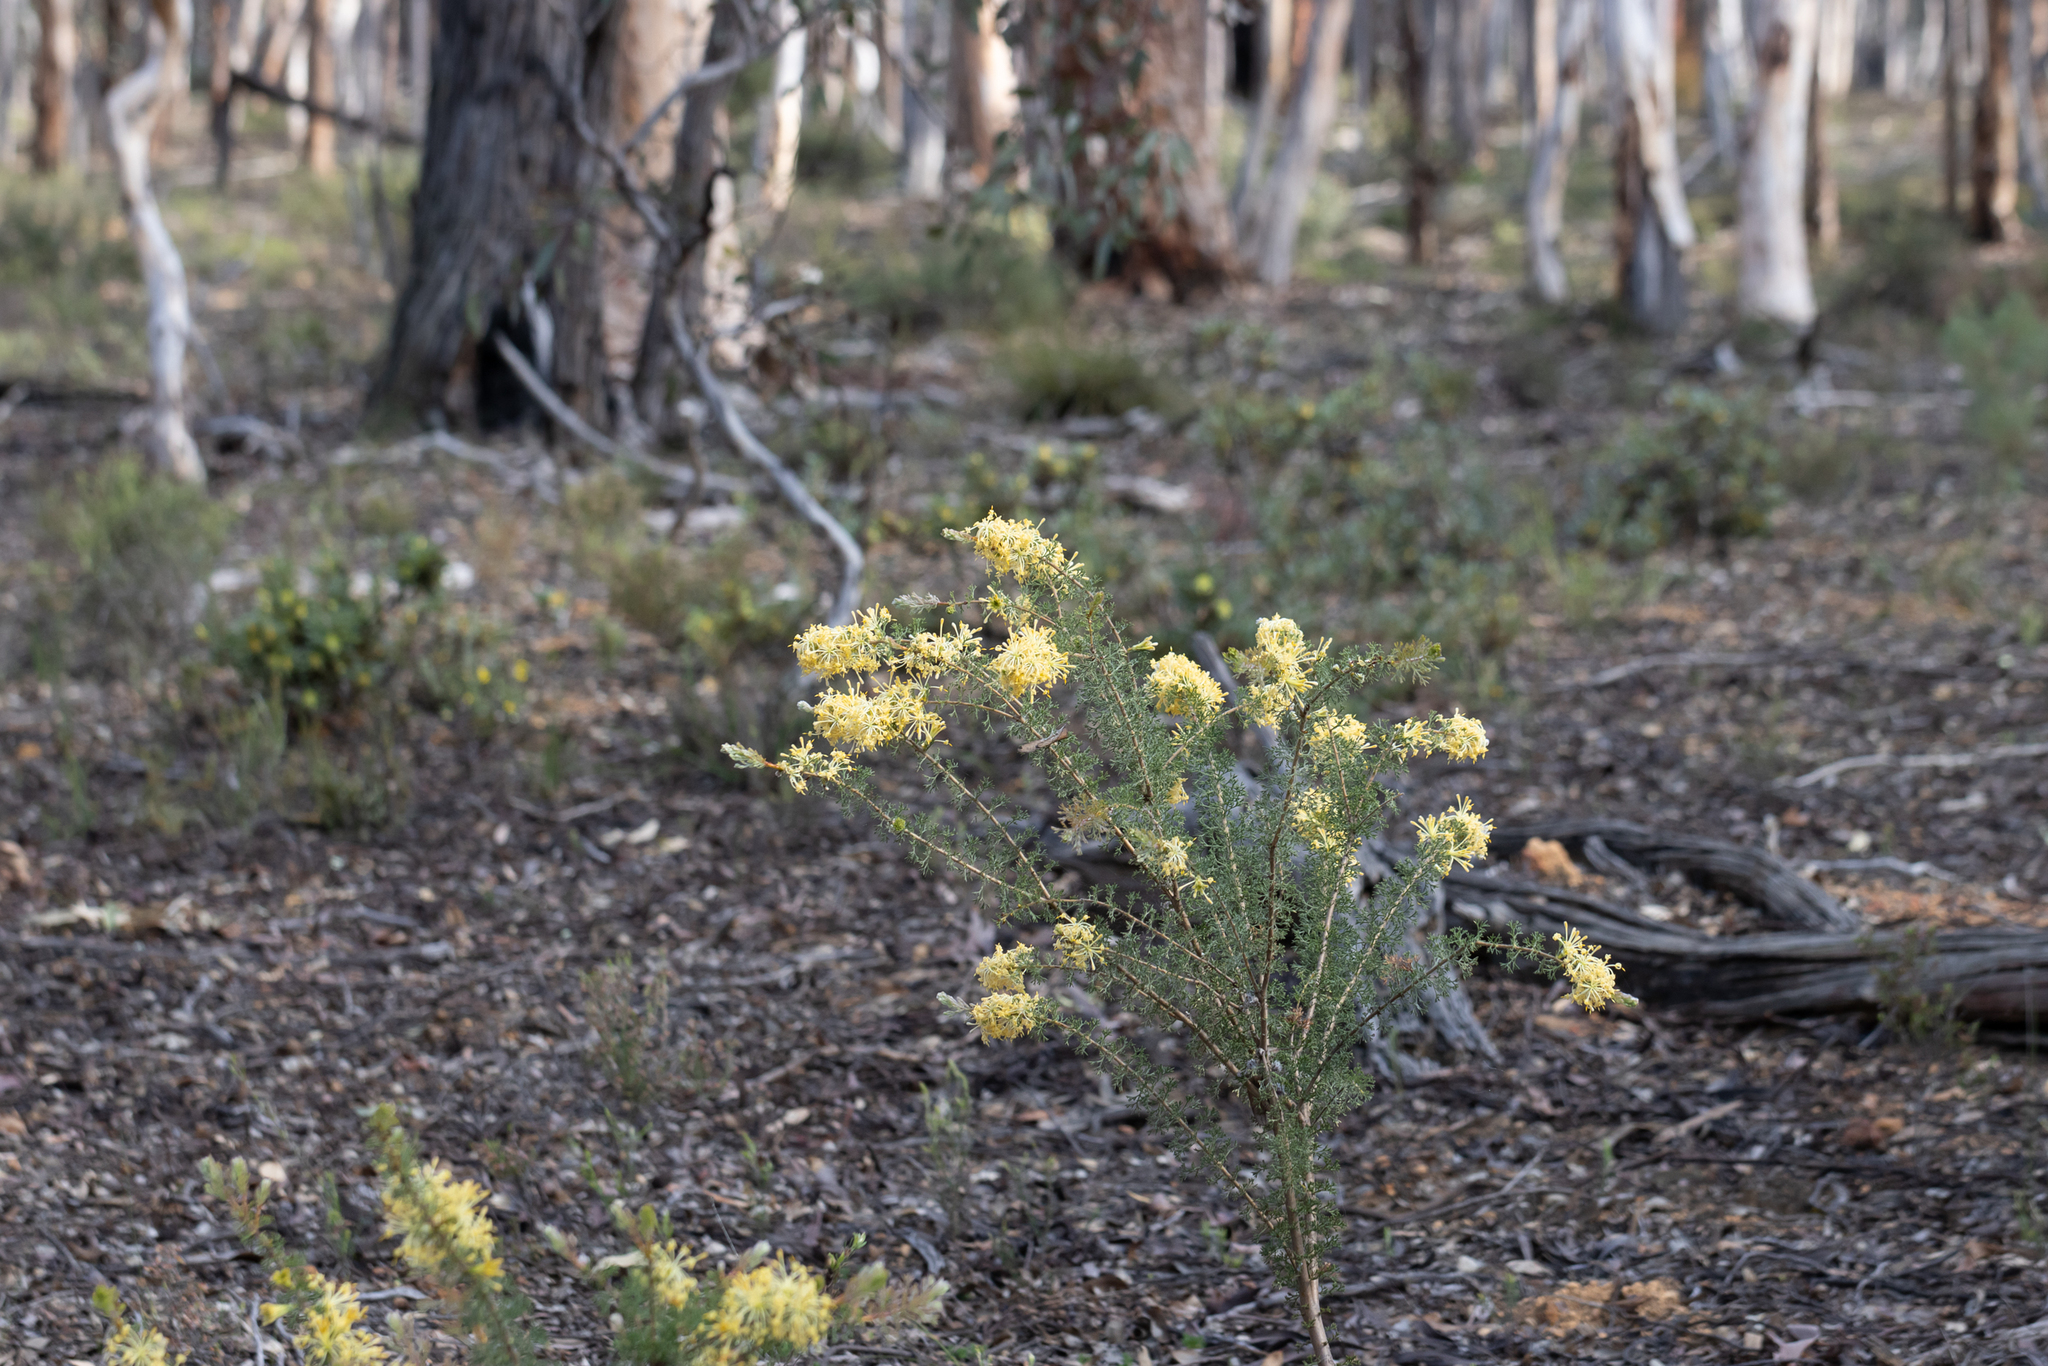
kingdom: Plantae
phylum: Tracheophyta
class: Magnoliopsida
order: Proteales
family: Proteaceae
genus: Petrophile
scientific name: Petrophile serruriae
